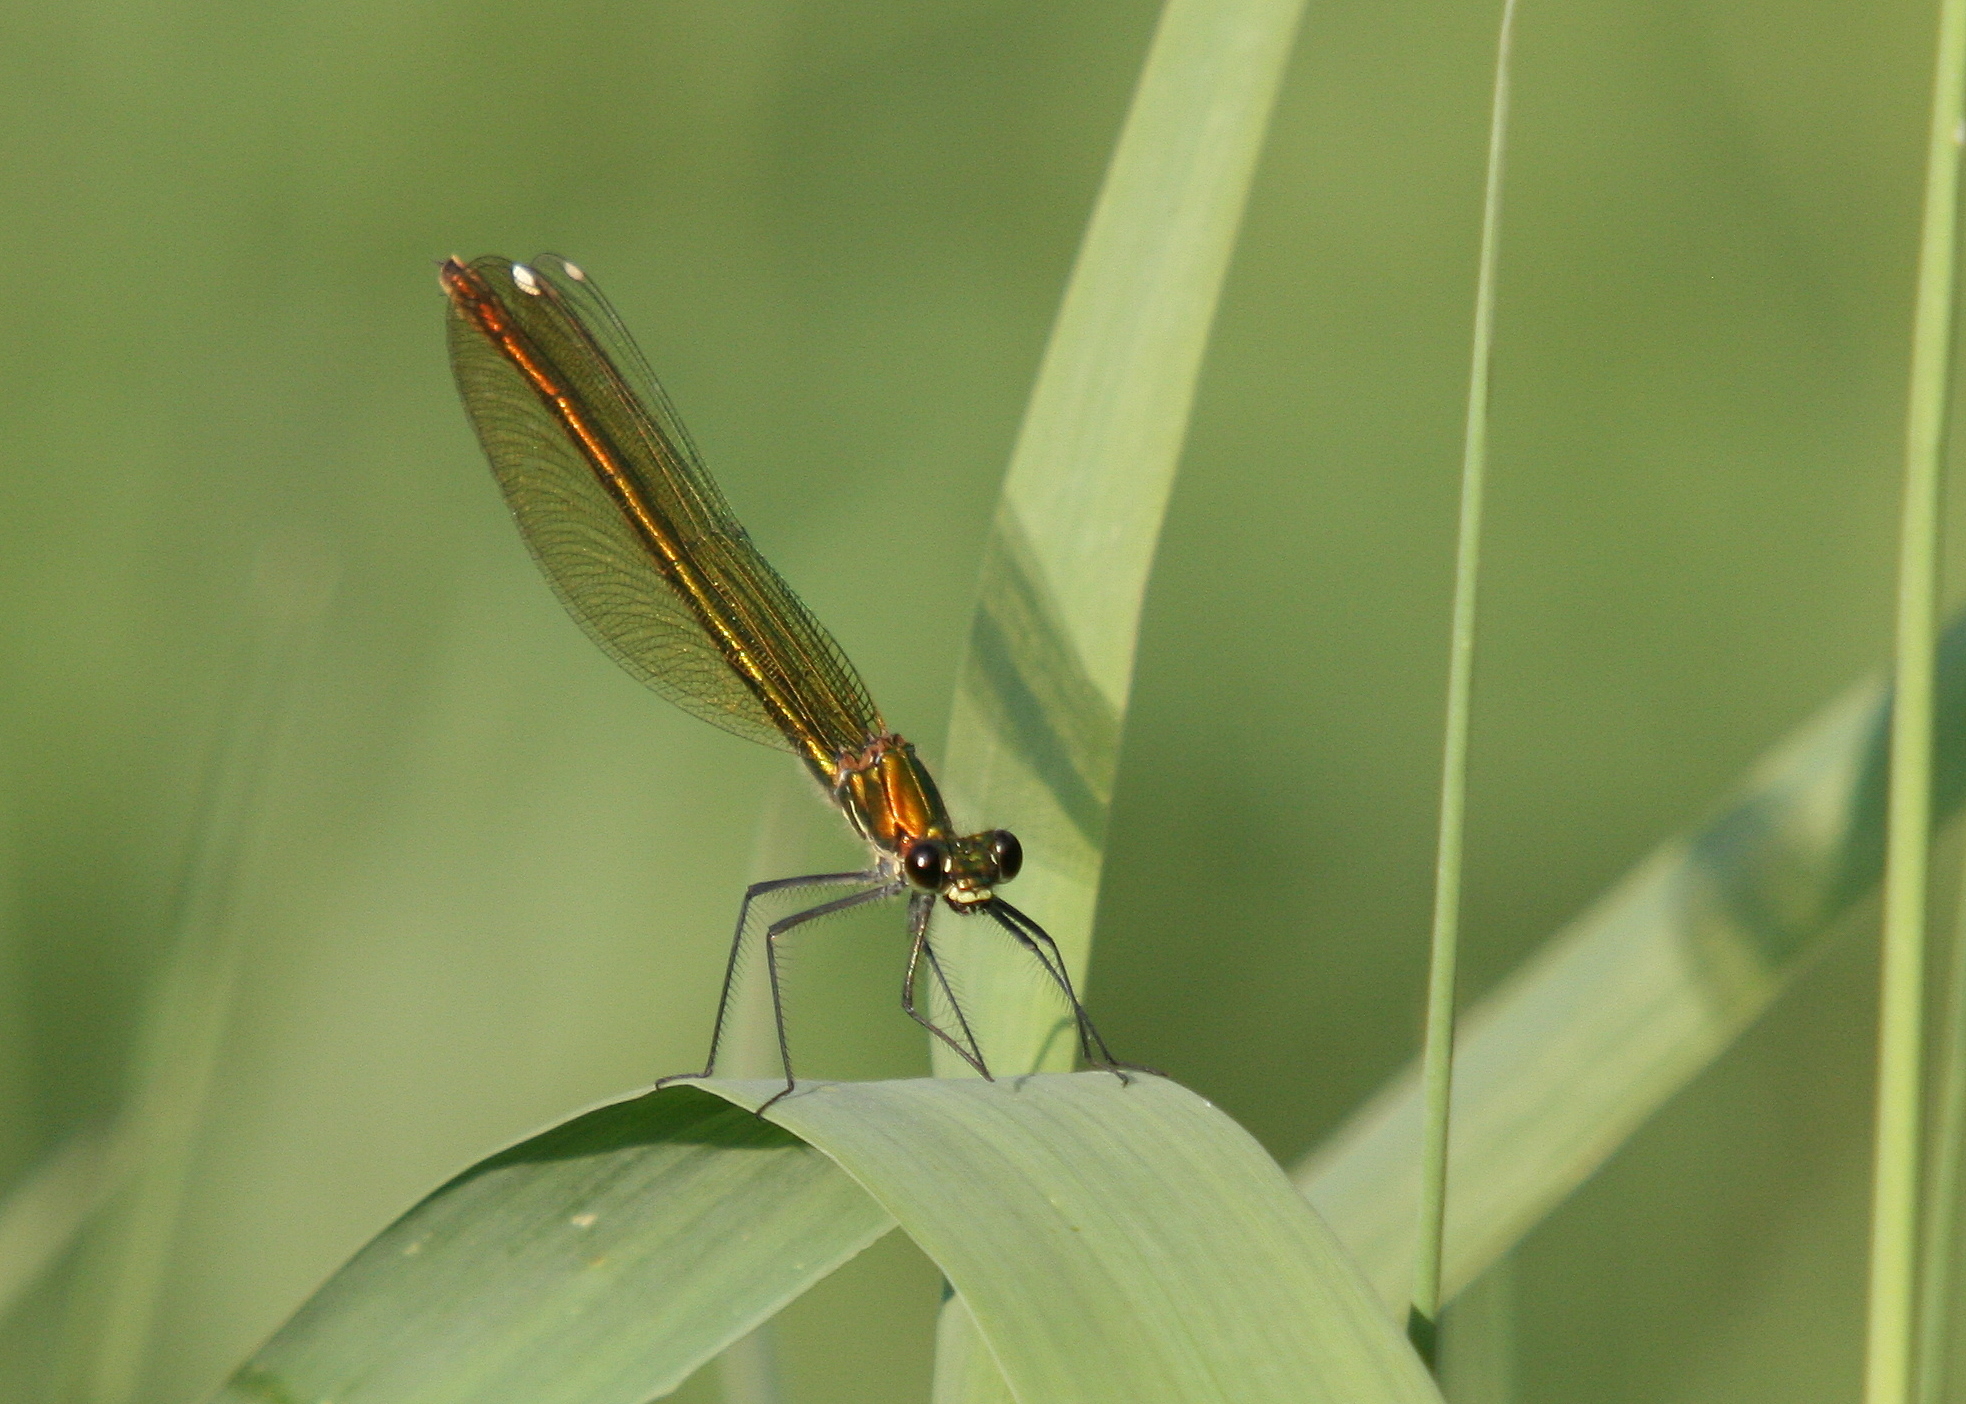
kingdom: Animalia
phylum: Arthropoda
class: Insecta
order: Odonata
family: Calopterygidae
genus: Calopteryx
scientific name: Calopteryx splendens
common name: Banded demoiselle
